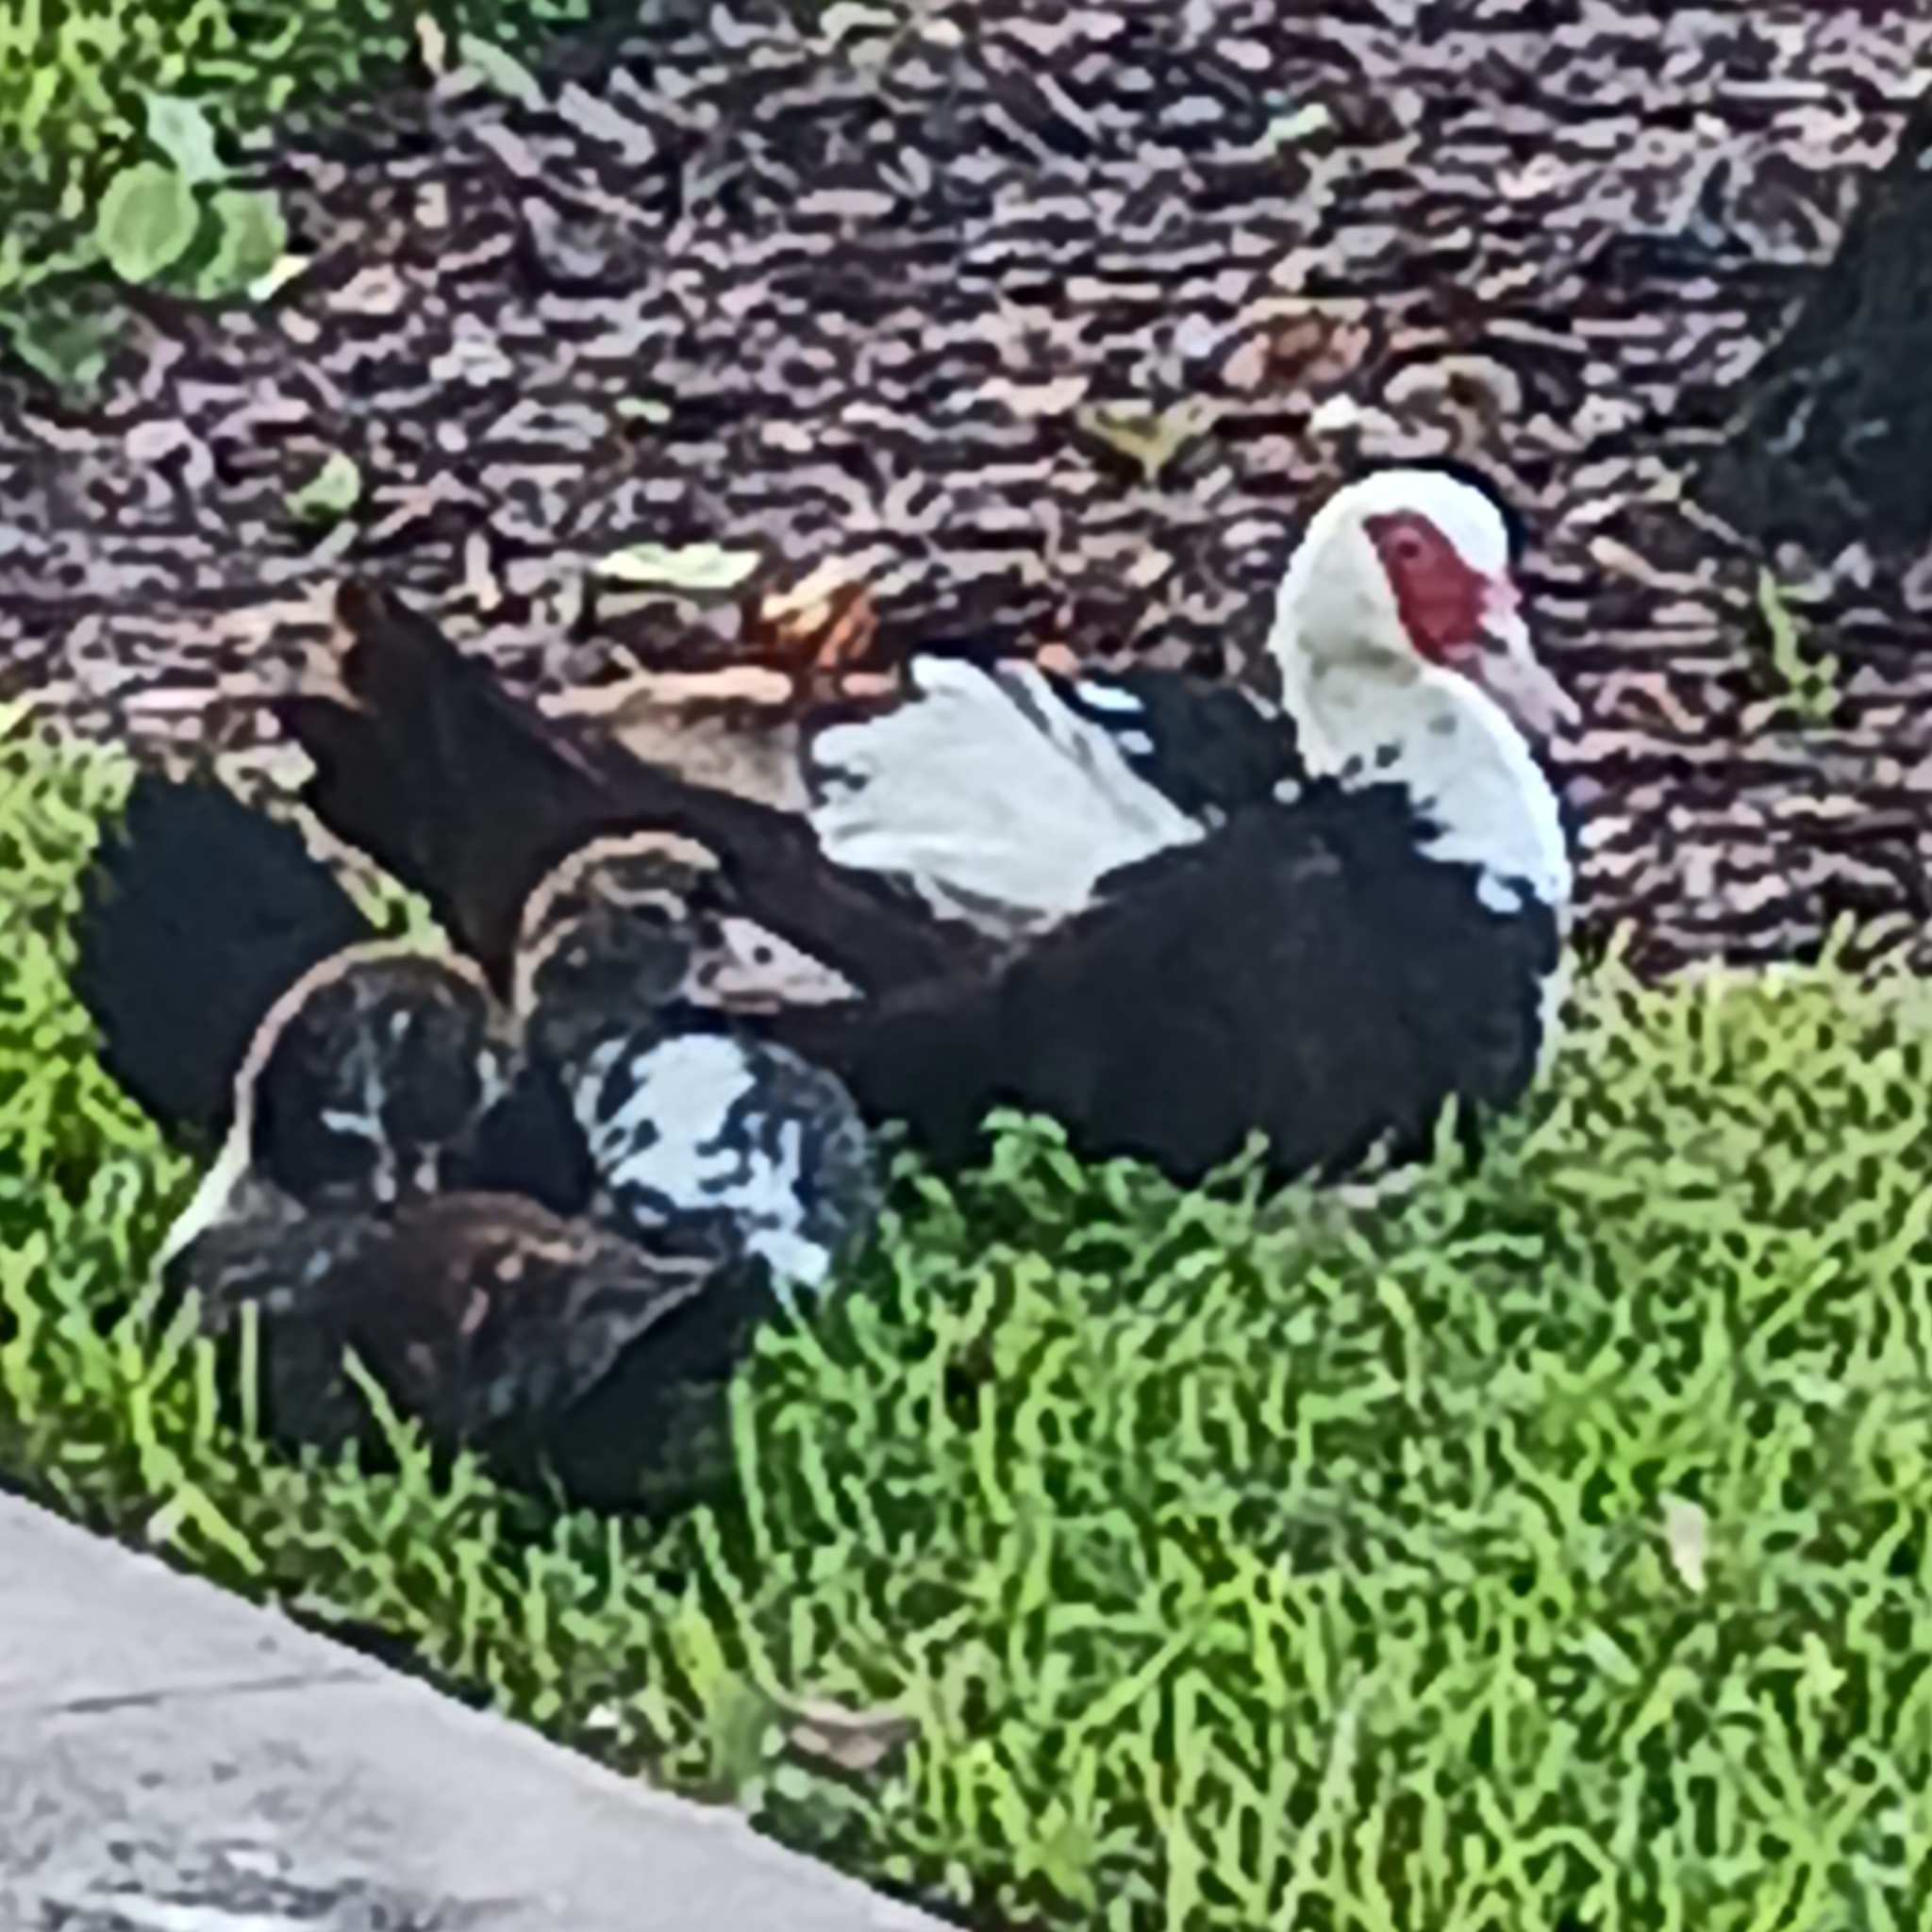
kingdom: Animalia
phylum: Chordata
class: Aves
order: Anseriformes
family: Anatidae
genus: Cairina
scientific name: Cairina moschata
